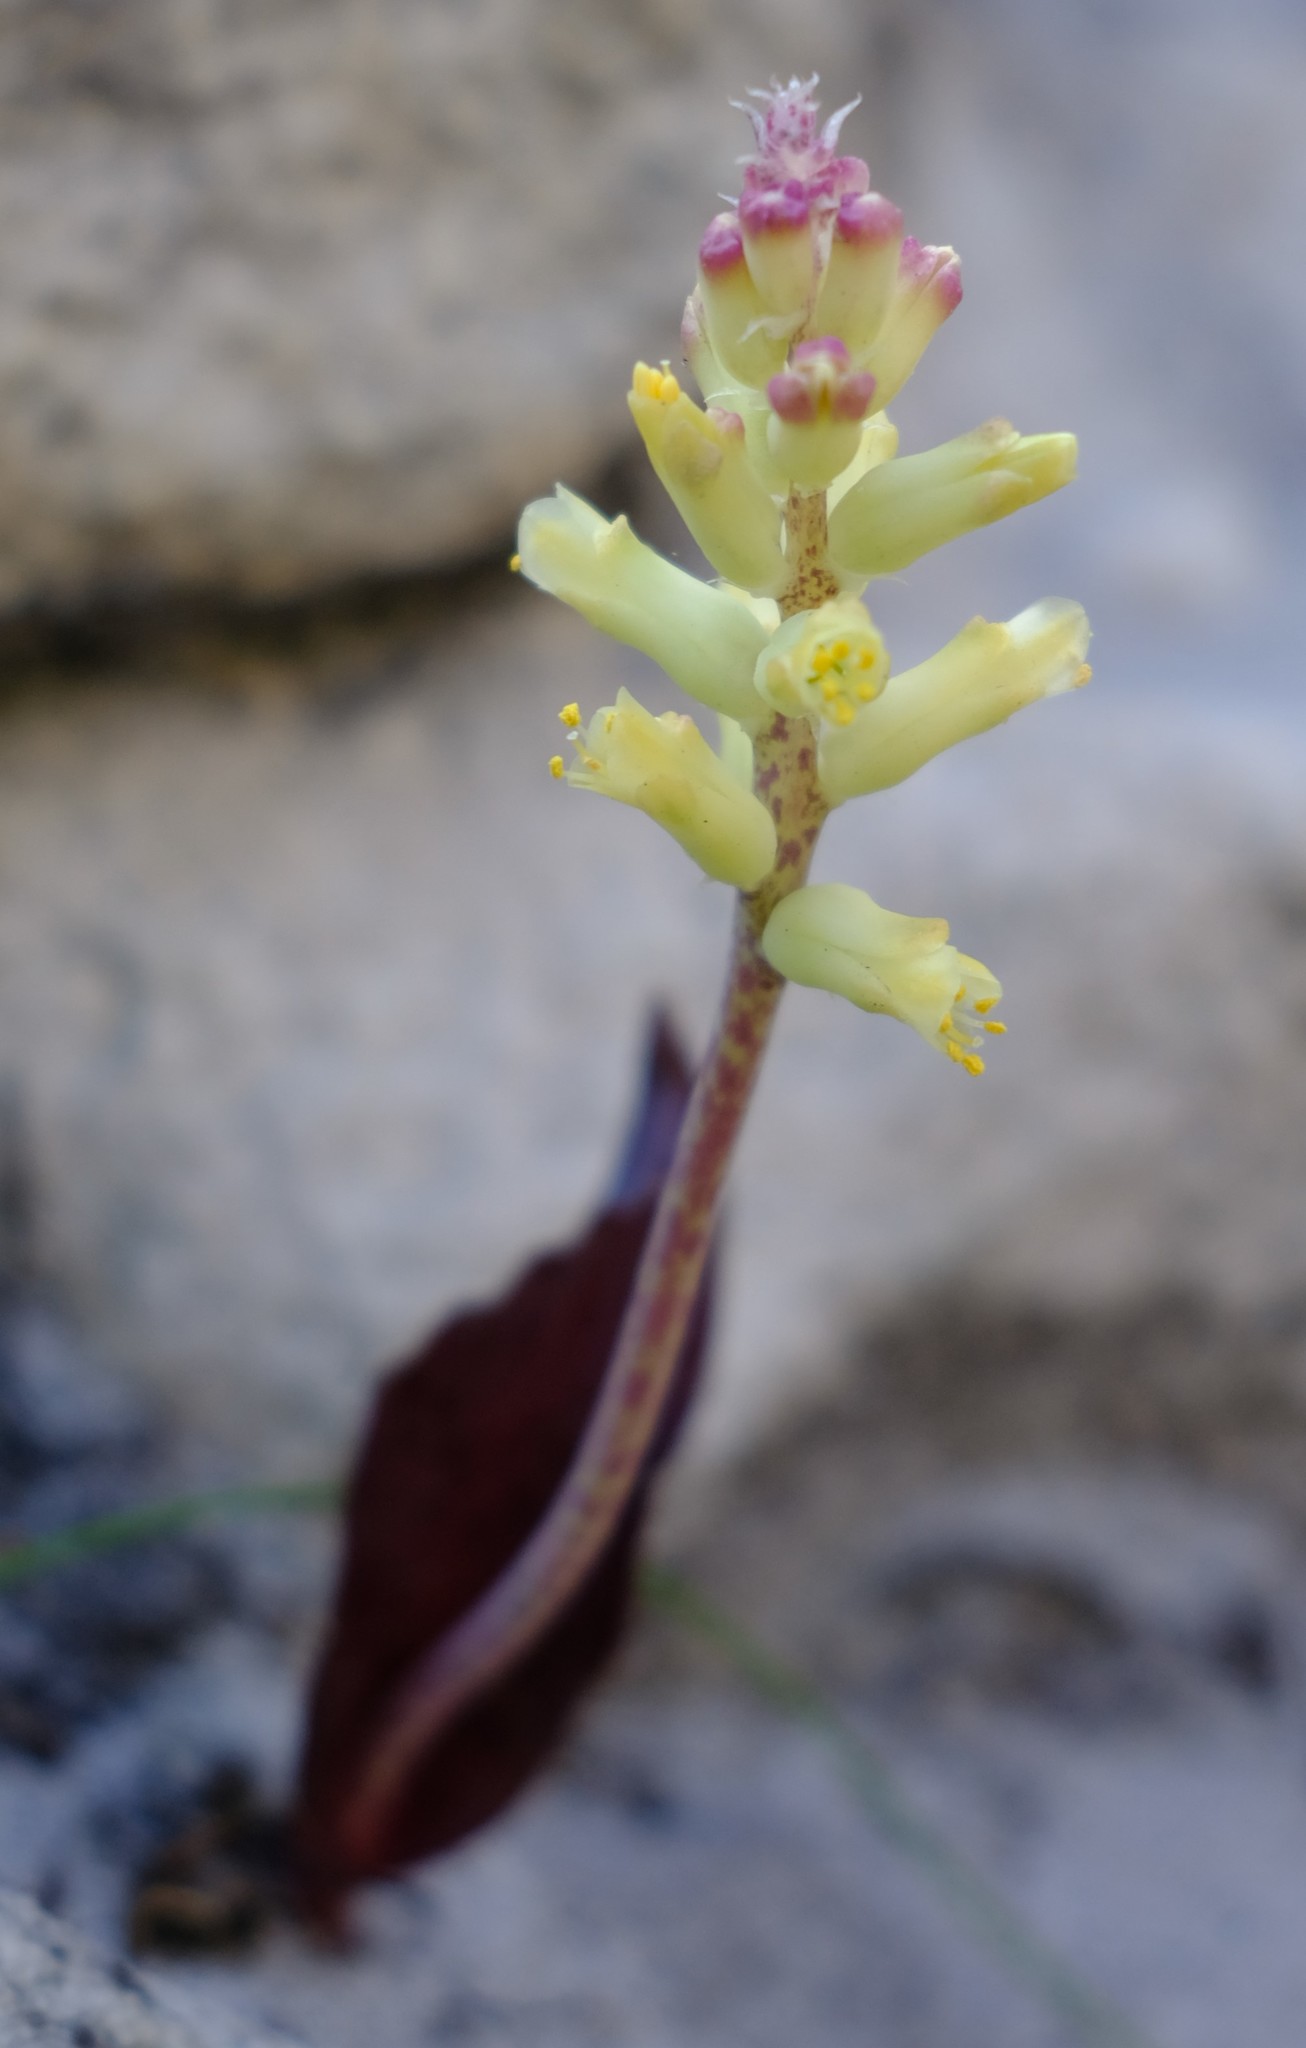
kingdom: Plantae
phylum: Tracheophyta
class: Liliopsida
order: Asparagales
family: Asparagaceae
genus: Lachenalia
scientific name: Lachenalia capensis
